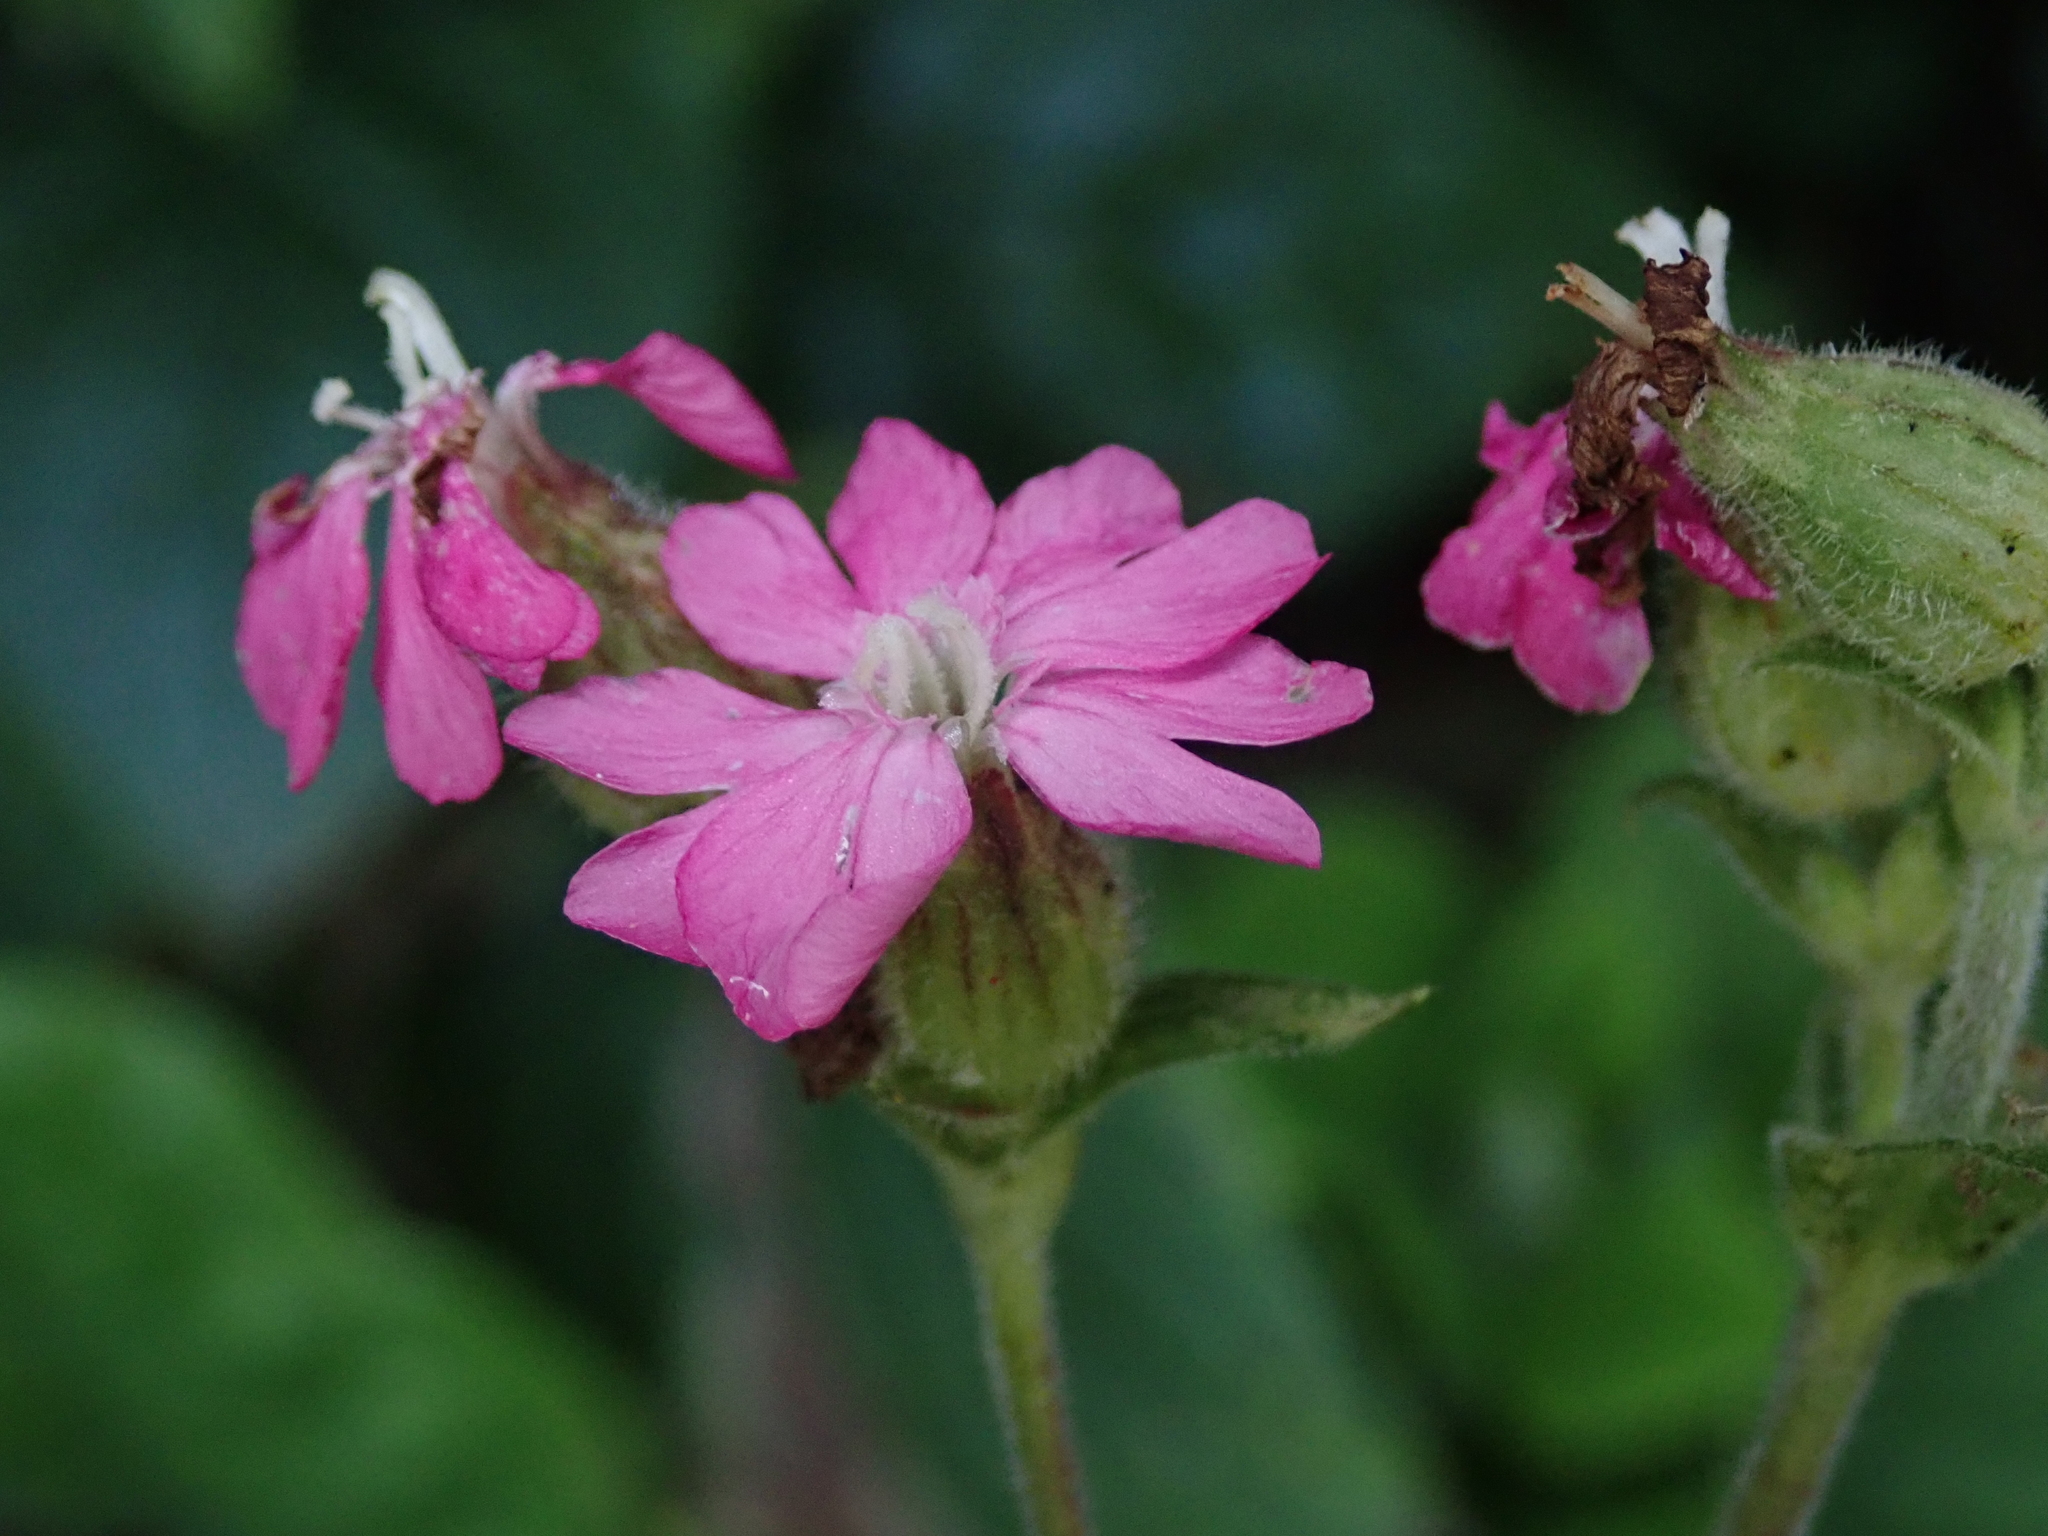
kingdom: Plantae
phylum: Tracheophyta
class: Magnoliopsida
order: Caryophyllales
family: Caryophyllaceae
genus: Silene
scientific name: Silene dioica
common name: Red campion
